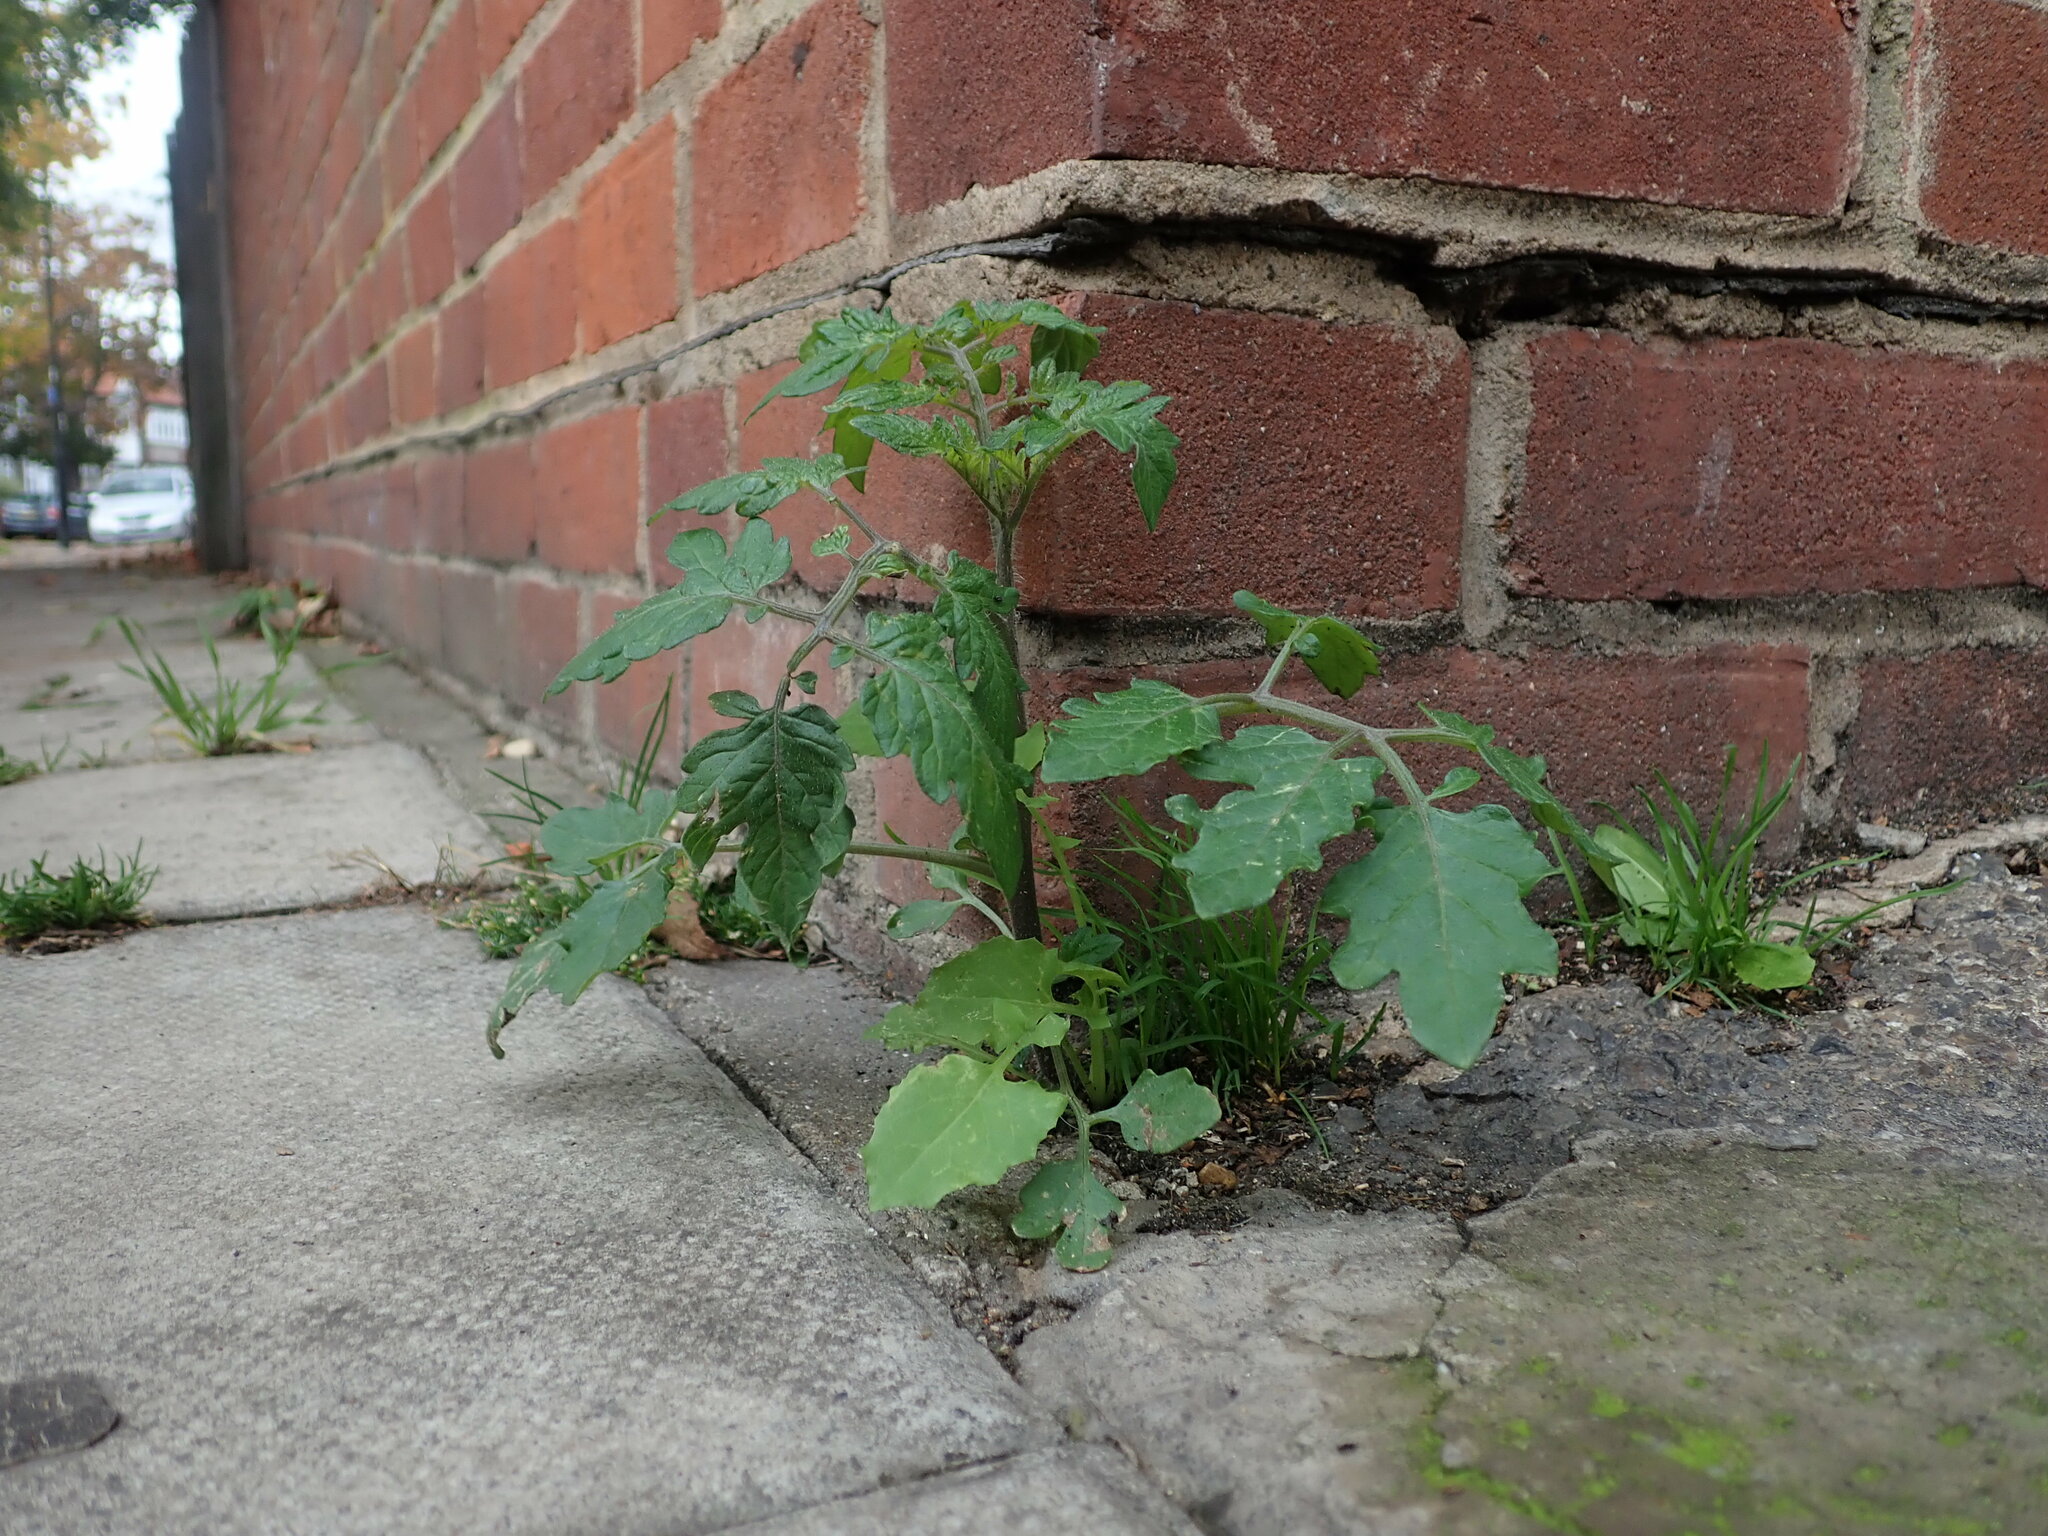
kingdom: Plantae
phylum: Tracheophyta
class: Magnoliopsida
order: Solanales
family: Solanaceae
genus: Solanum
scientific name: Solanum lycopersicum
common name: Garden tomato
